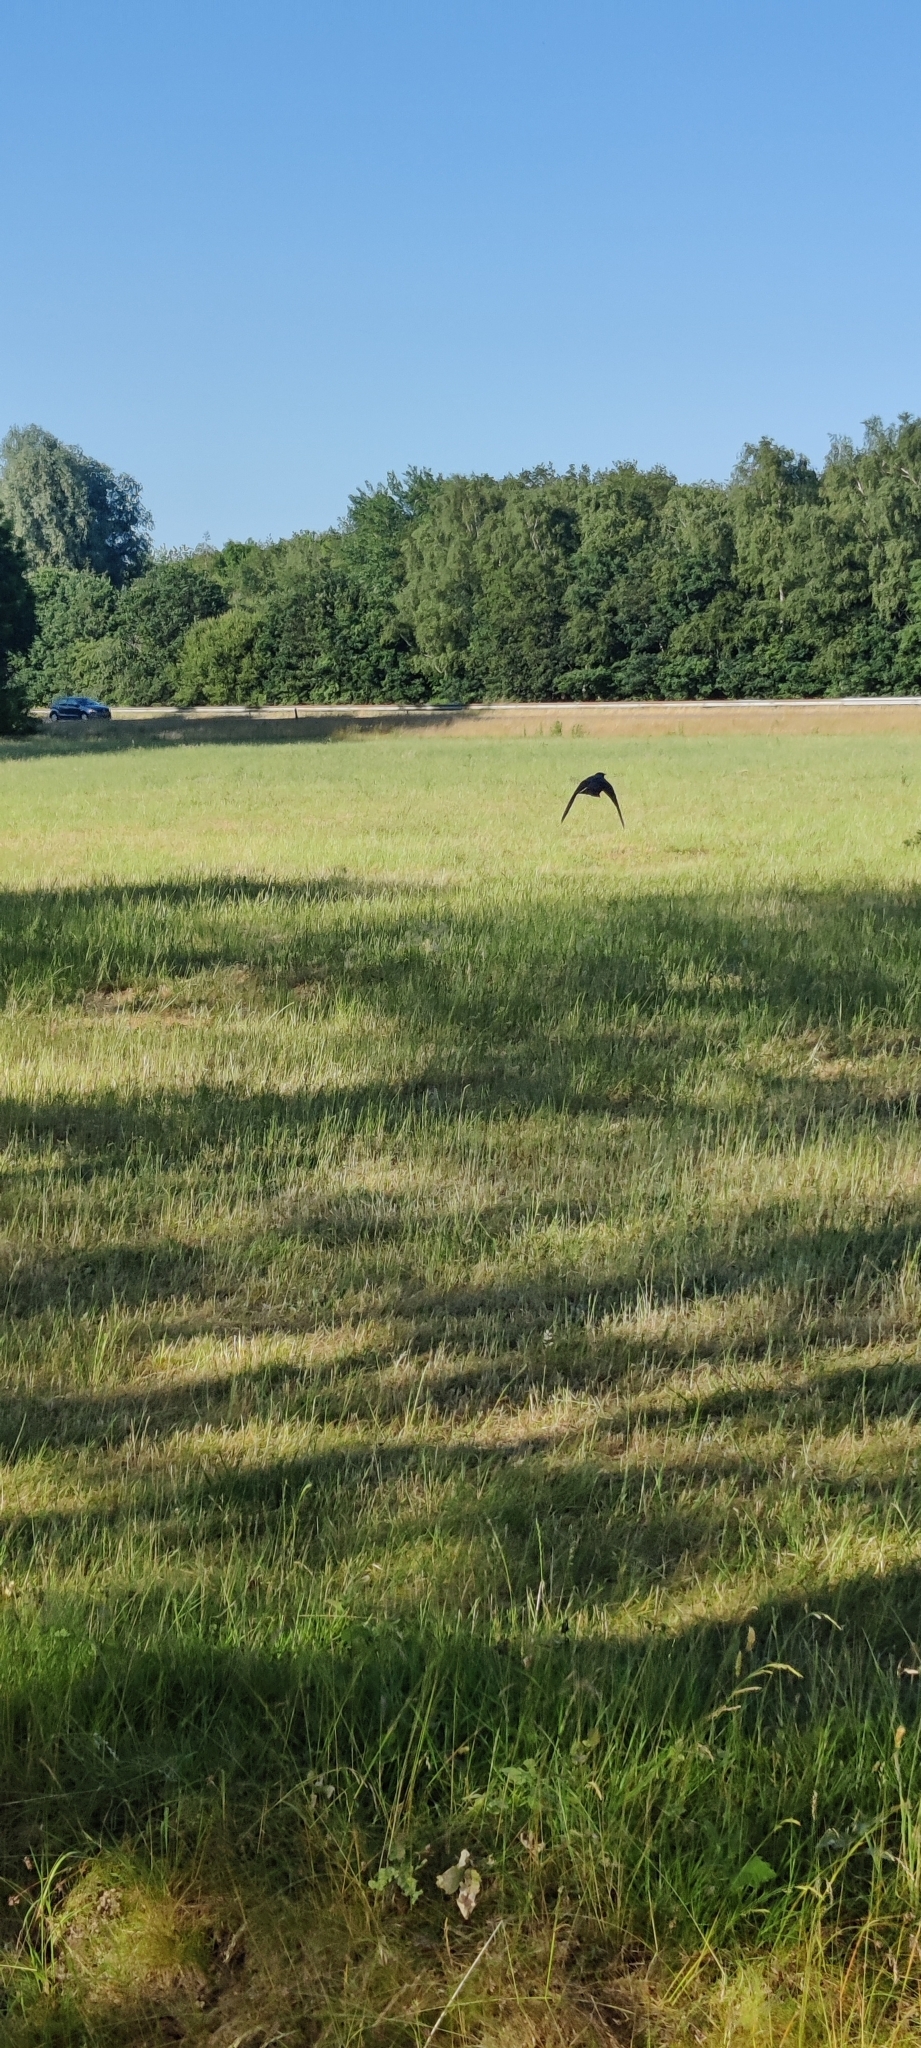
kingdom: Animalia
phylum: Chordata
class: Aves
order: Passeriformes
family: Sturnidae
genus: Sturnus
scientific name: Sturnus vulgaris
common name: Common starling
